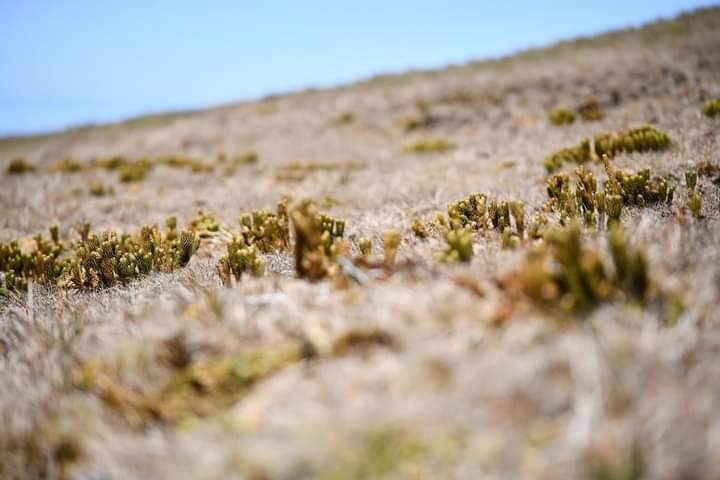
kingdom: Plantae
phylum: Tracheophyta
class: Lycopodiopsida
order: Lycopodiales
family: Lycopodiaceae
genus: Phlegmariurus
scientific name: Phlegmariurus saururus
